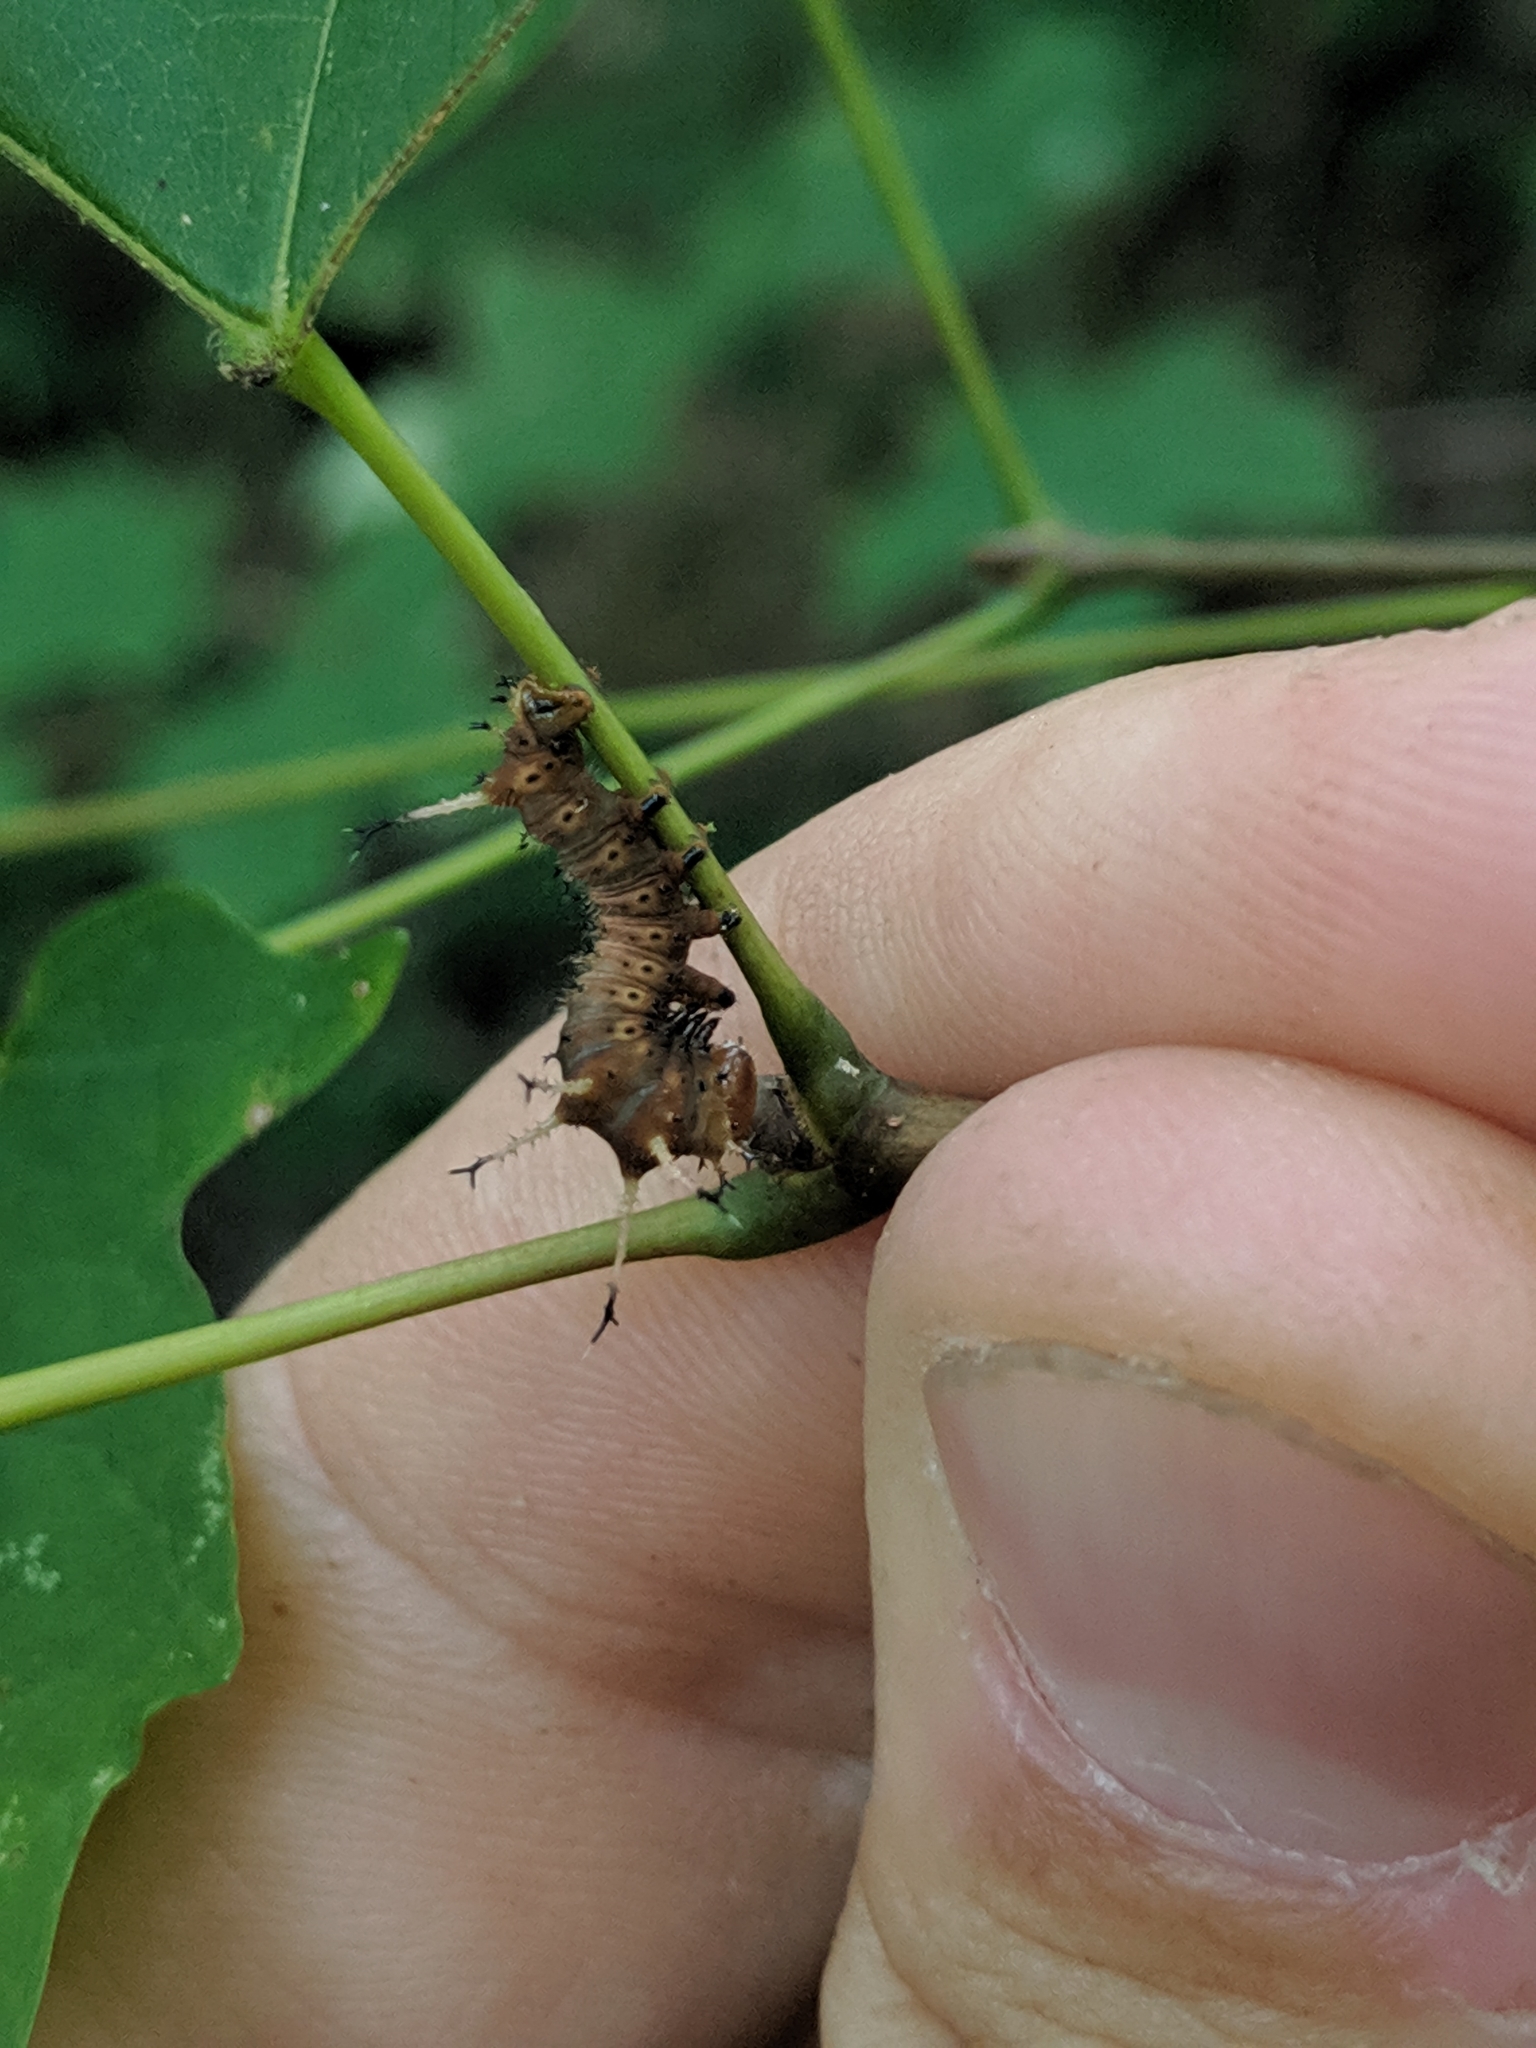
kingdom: Animalia
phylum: Arthropoda
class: Insecta
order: Lepidoptera
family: Saturniidae
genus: Eacles
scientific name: Eacles imperialis
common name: Imperial moth
